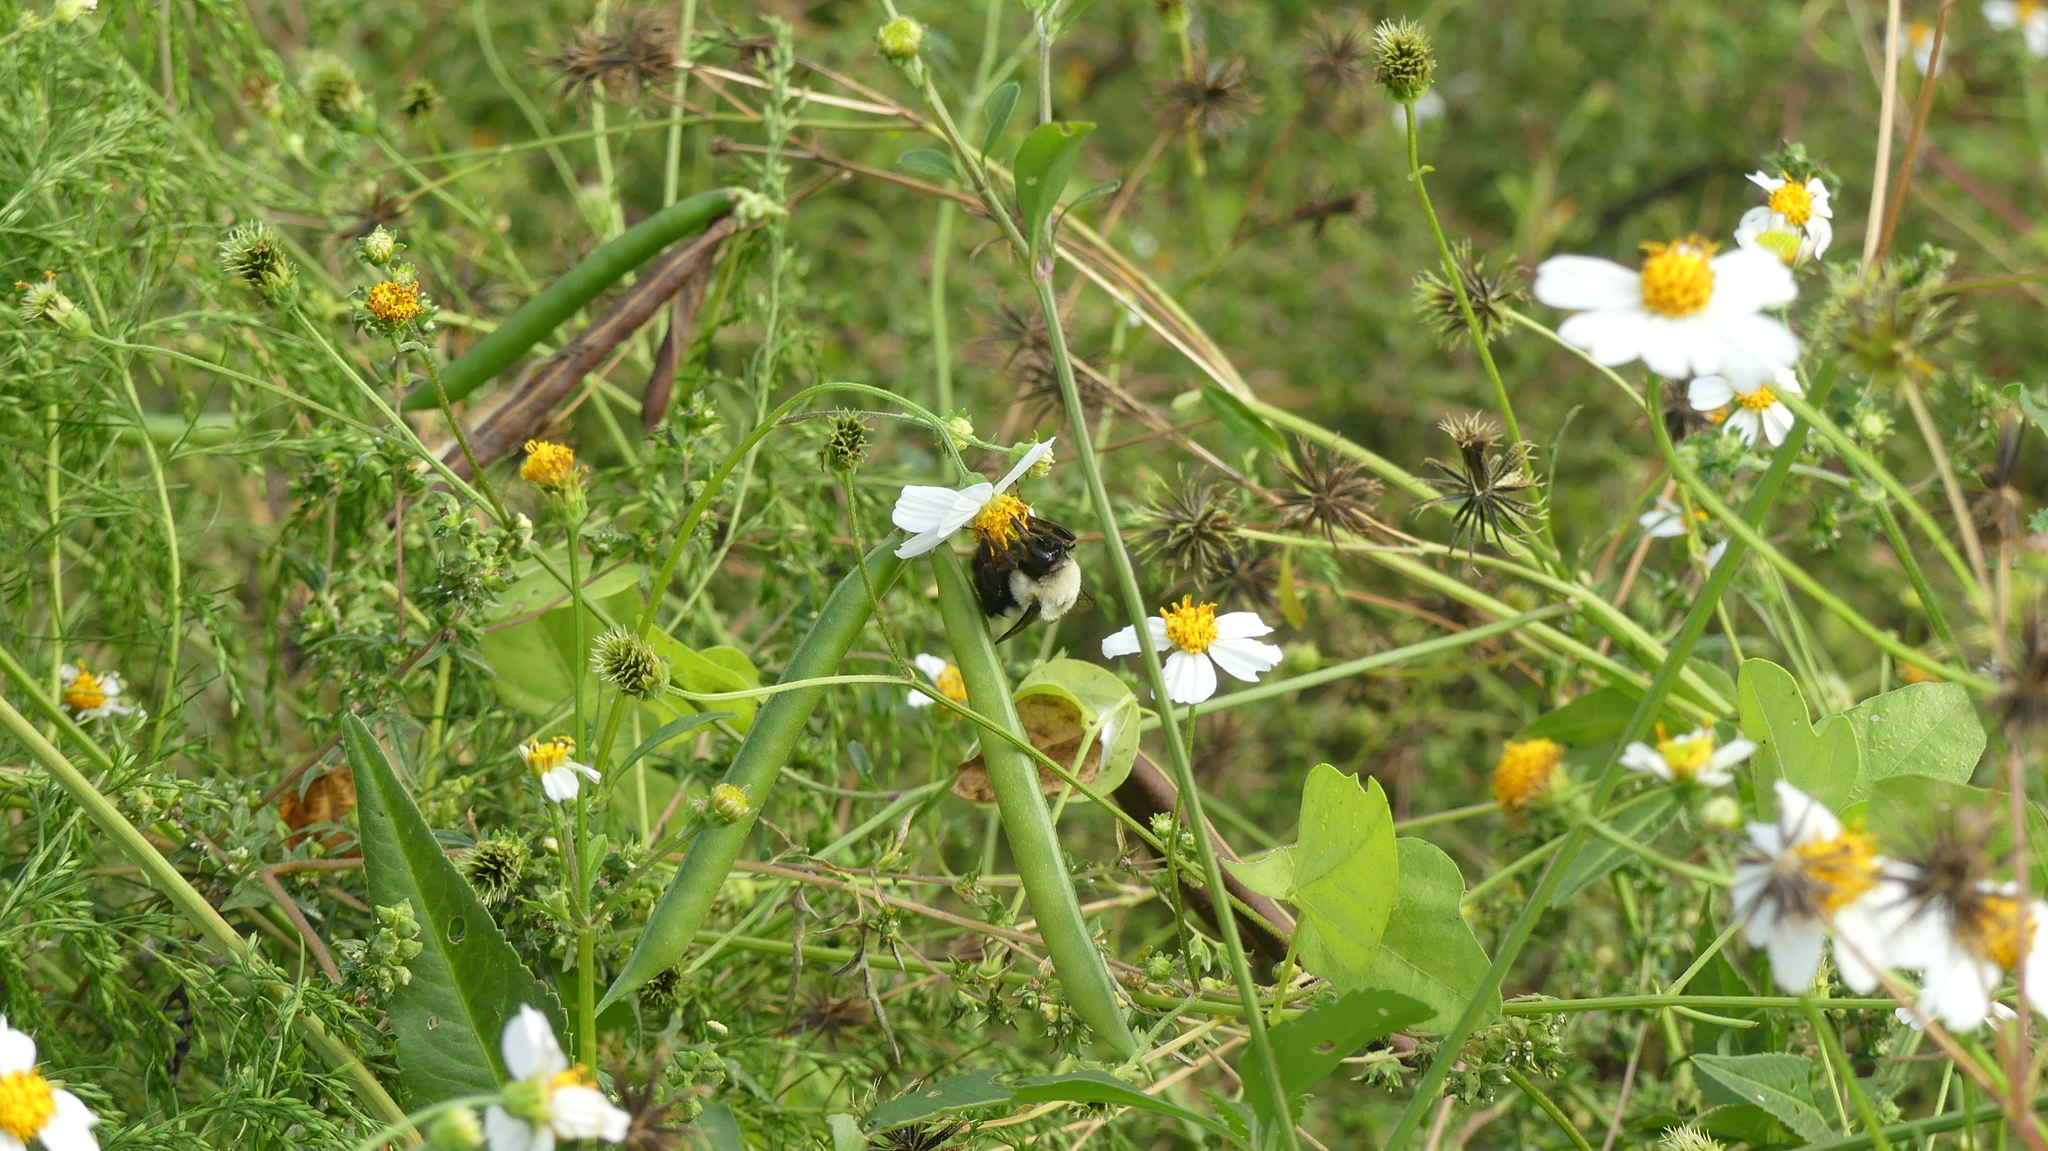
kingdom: Animalia
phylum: Arthropoda
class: Insecta
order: Hymenoptera
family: Apidae
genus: Bombus
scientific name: Bombus impatiens
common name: Common eastern bumble bee
